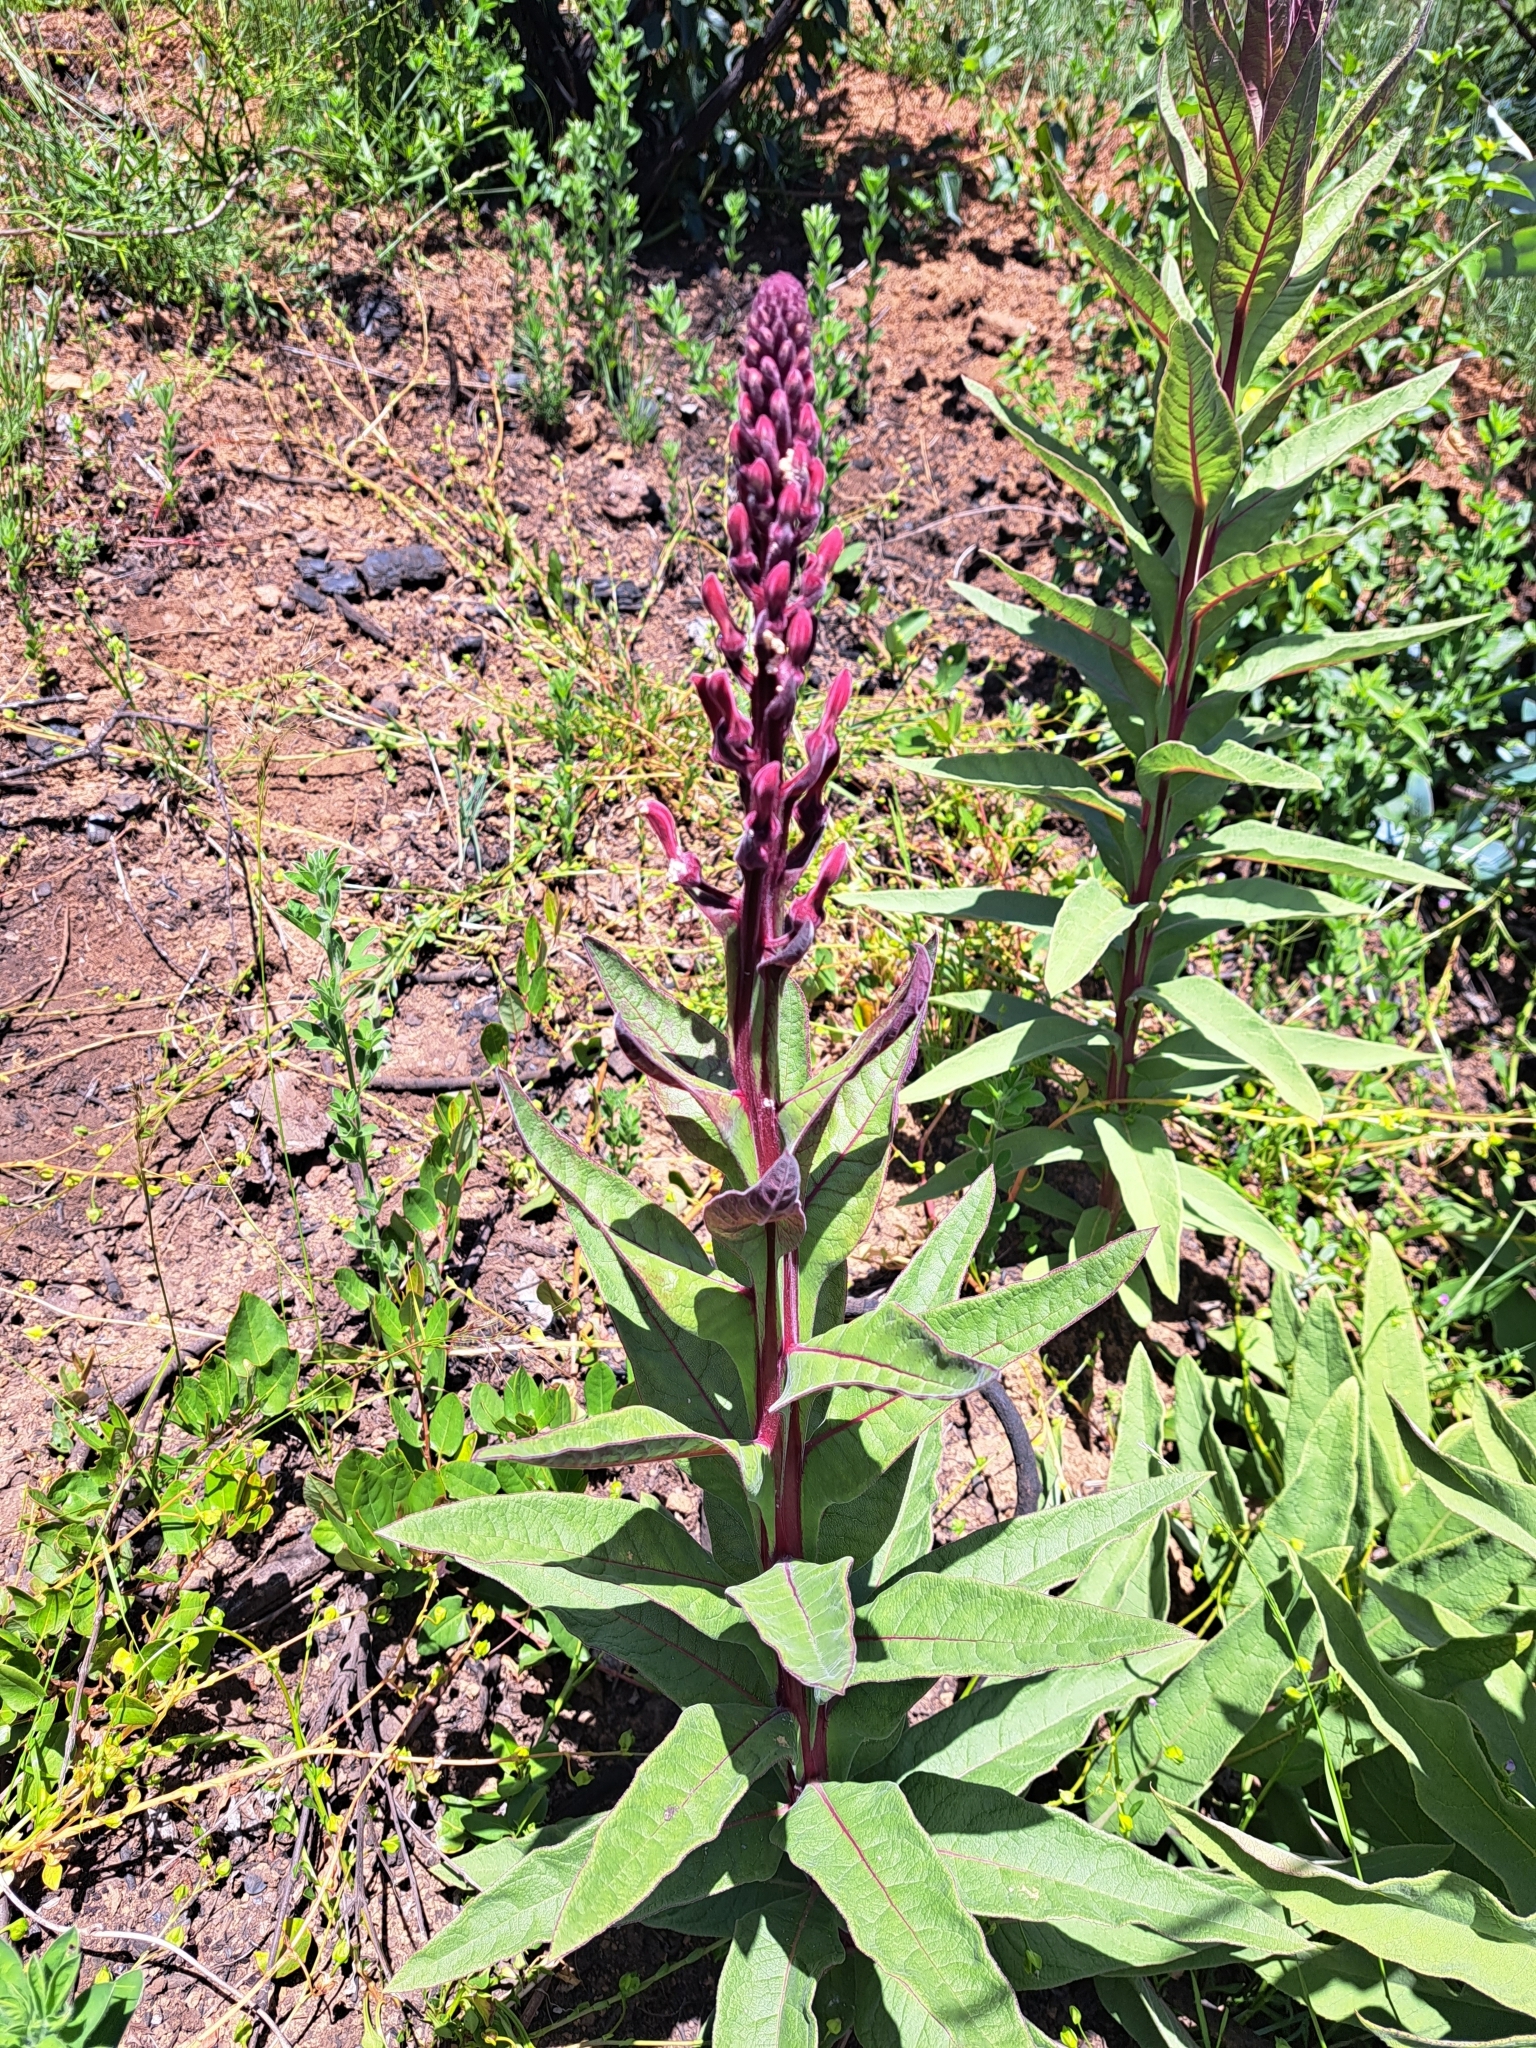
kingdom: Plantae
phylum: Tracheophyta
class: Magnoliopsida
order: Asterales
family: Campanulaceae
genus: Lobelia
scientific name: Lobelia tupa
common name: Devil's-tobacco
